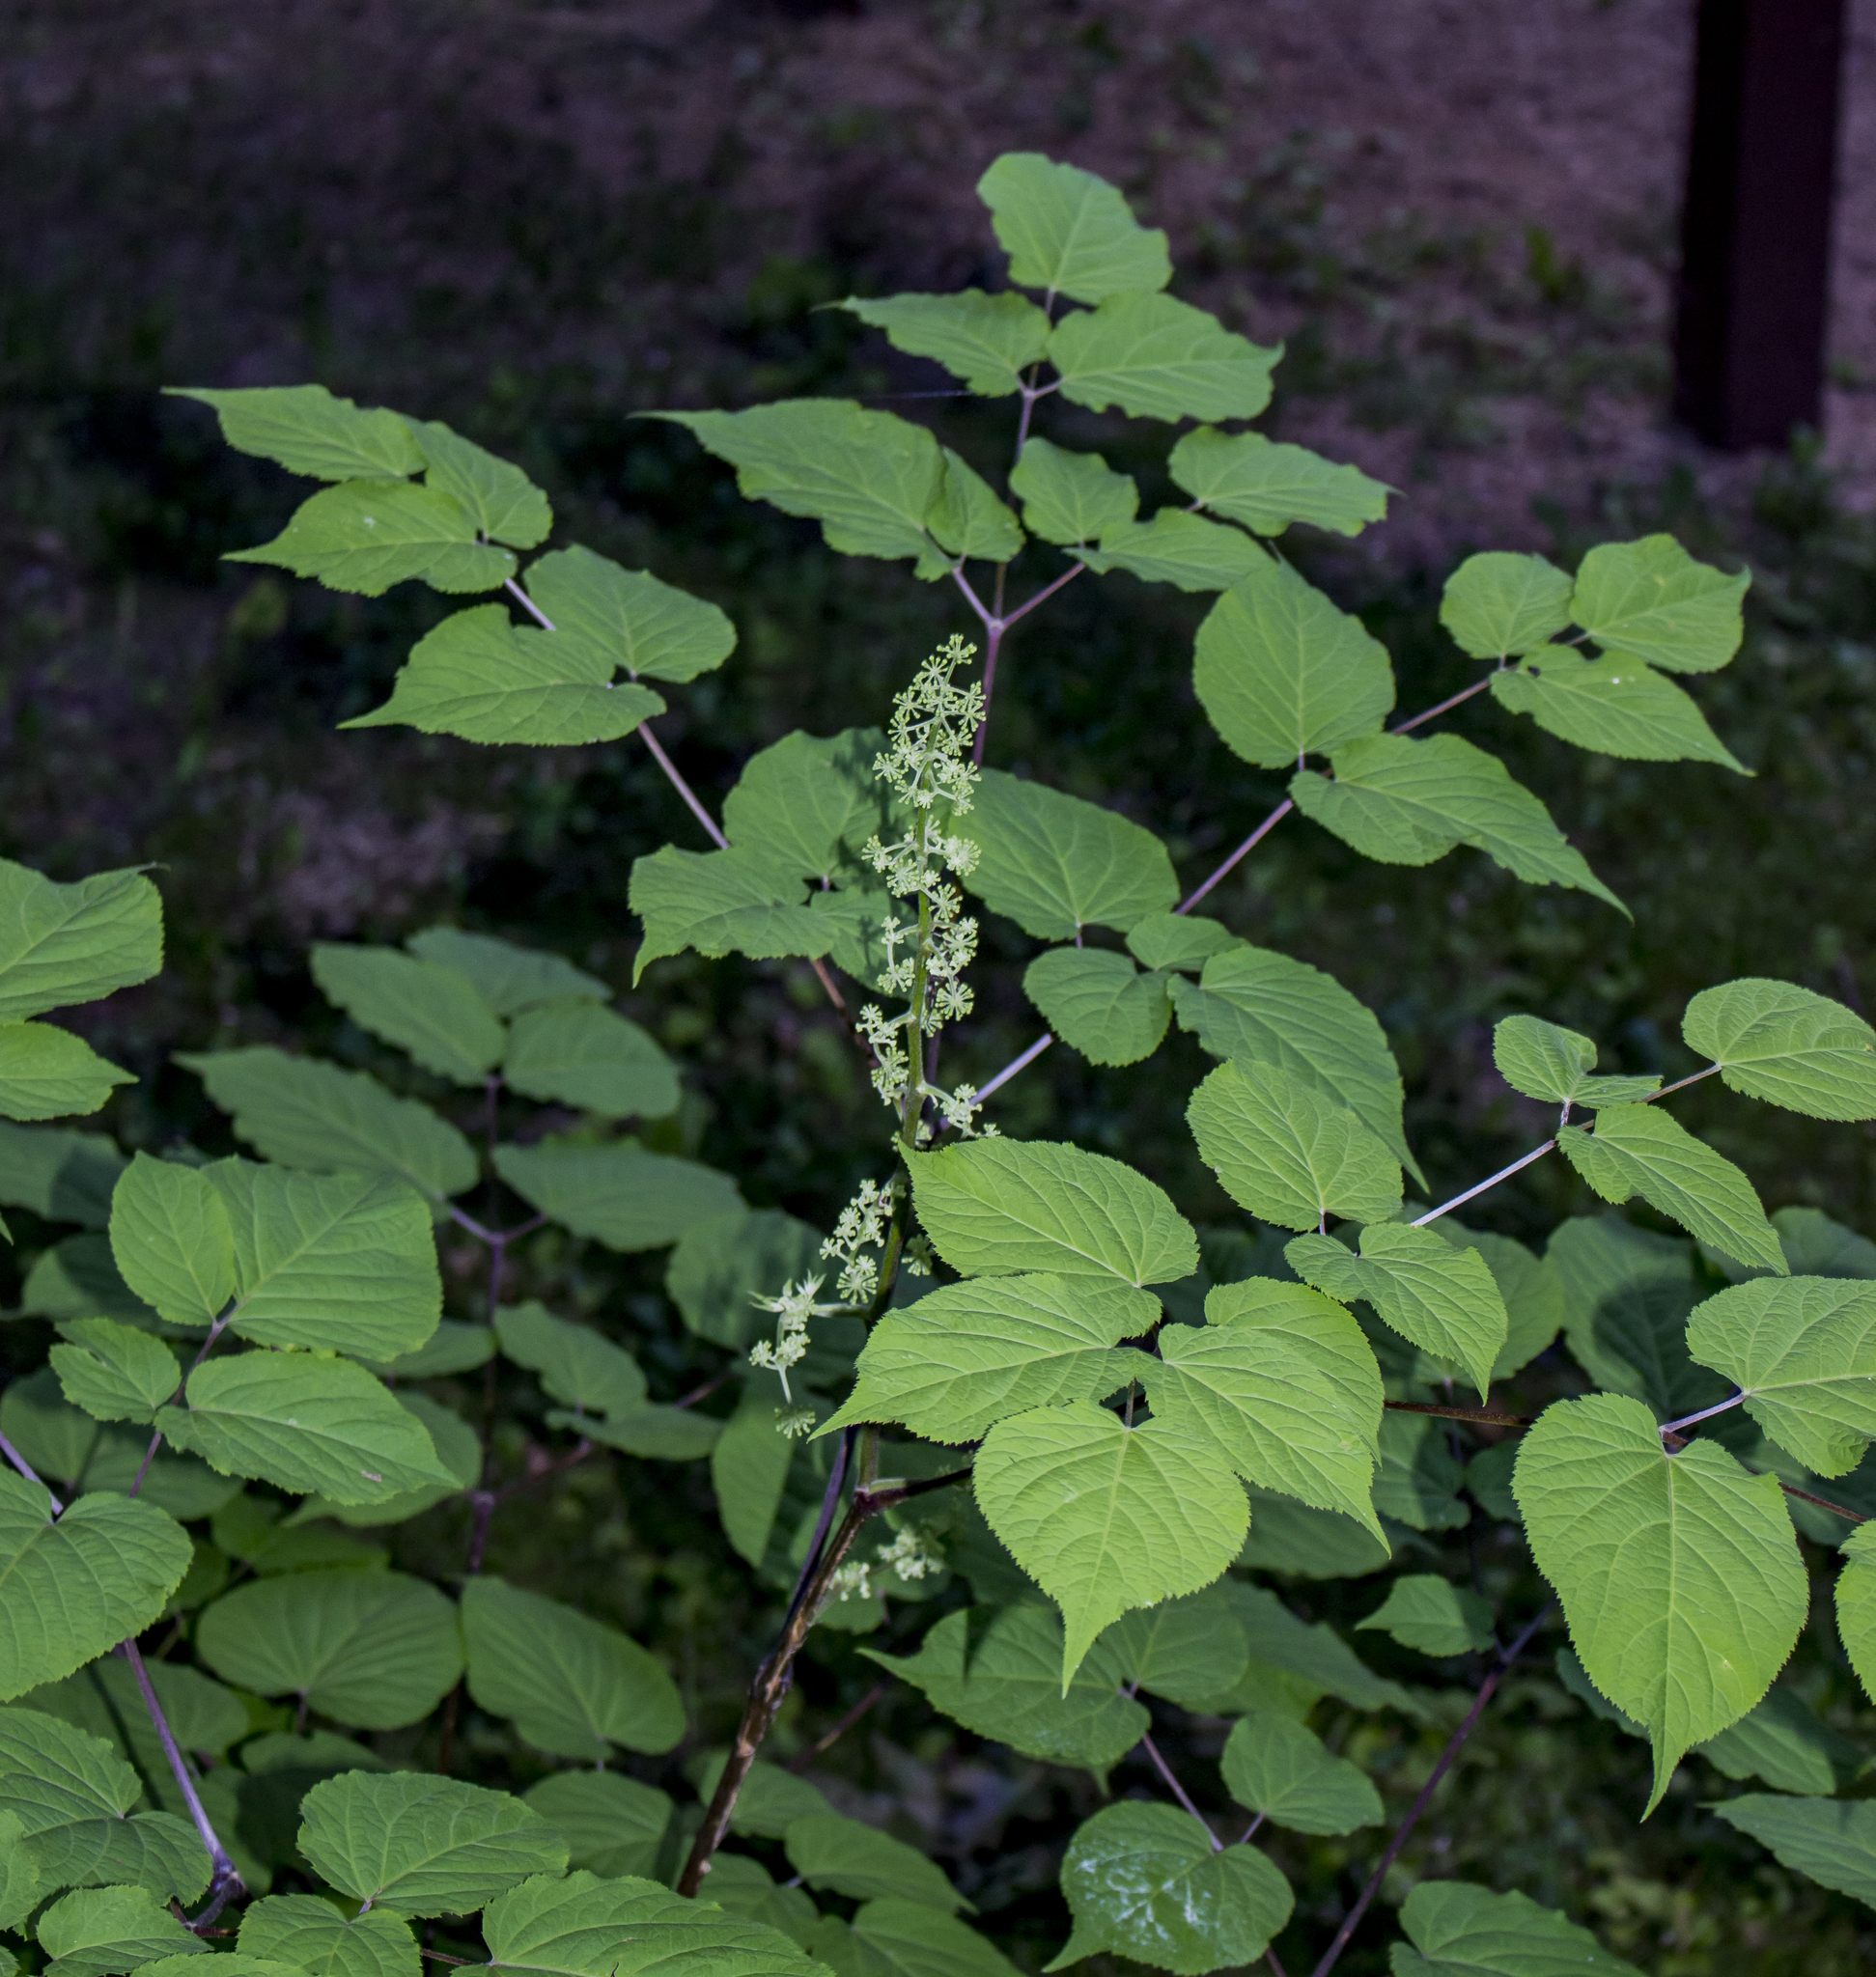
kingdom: Plantae
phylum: Tracheophyta
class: Magnoliopsida
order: Apiales
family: Araliaceae
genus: Aralia
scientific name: Aralia racemosa
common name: American-spikenard
